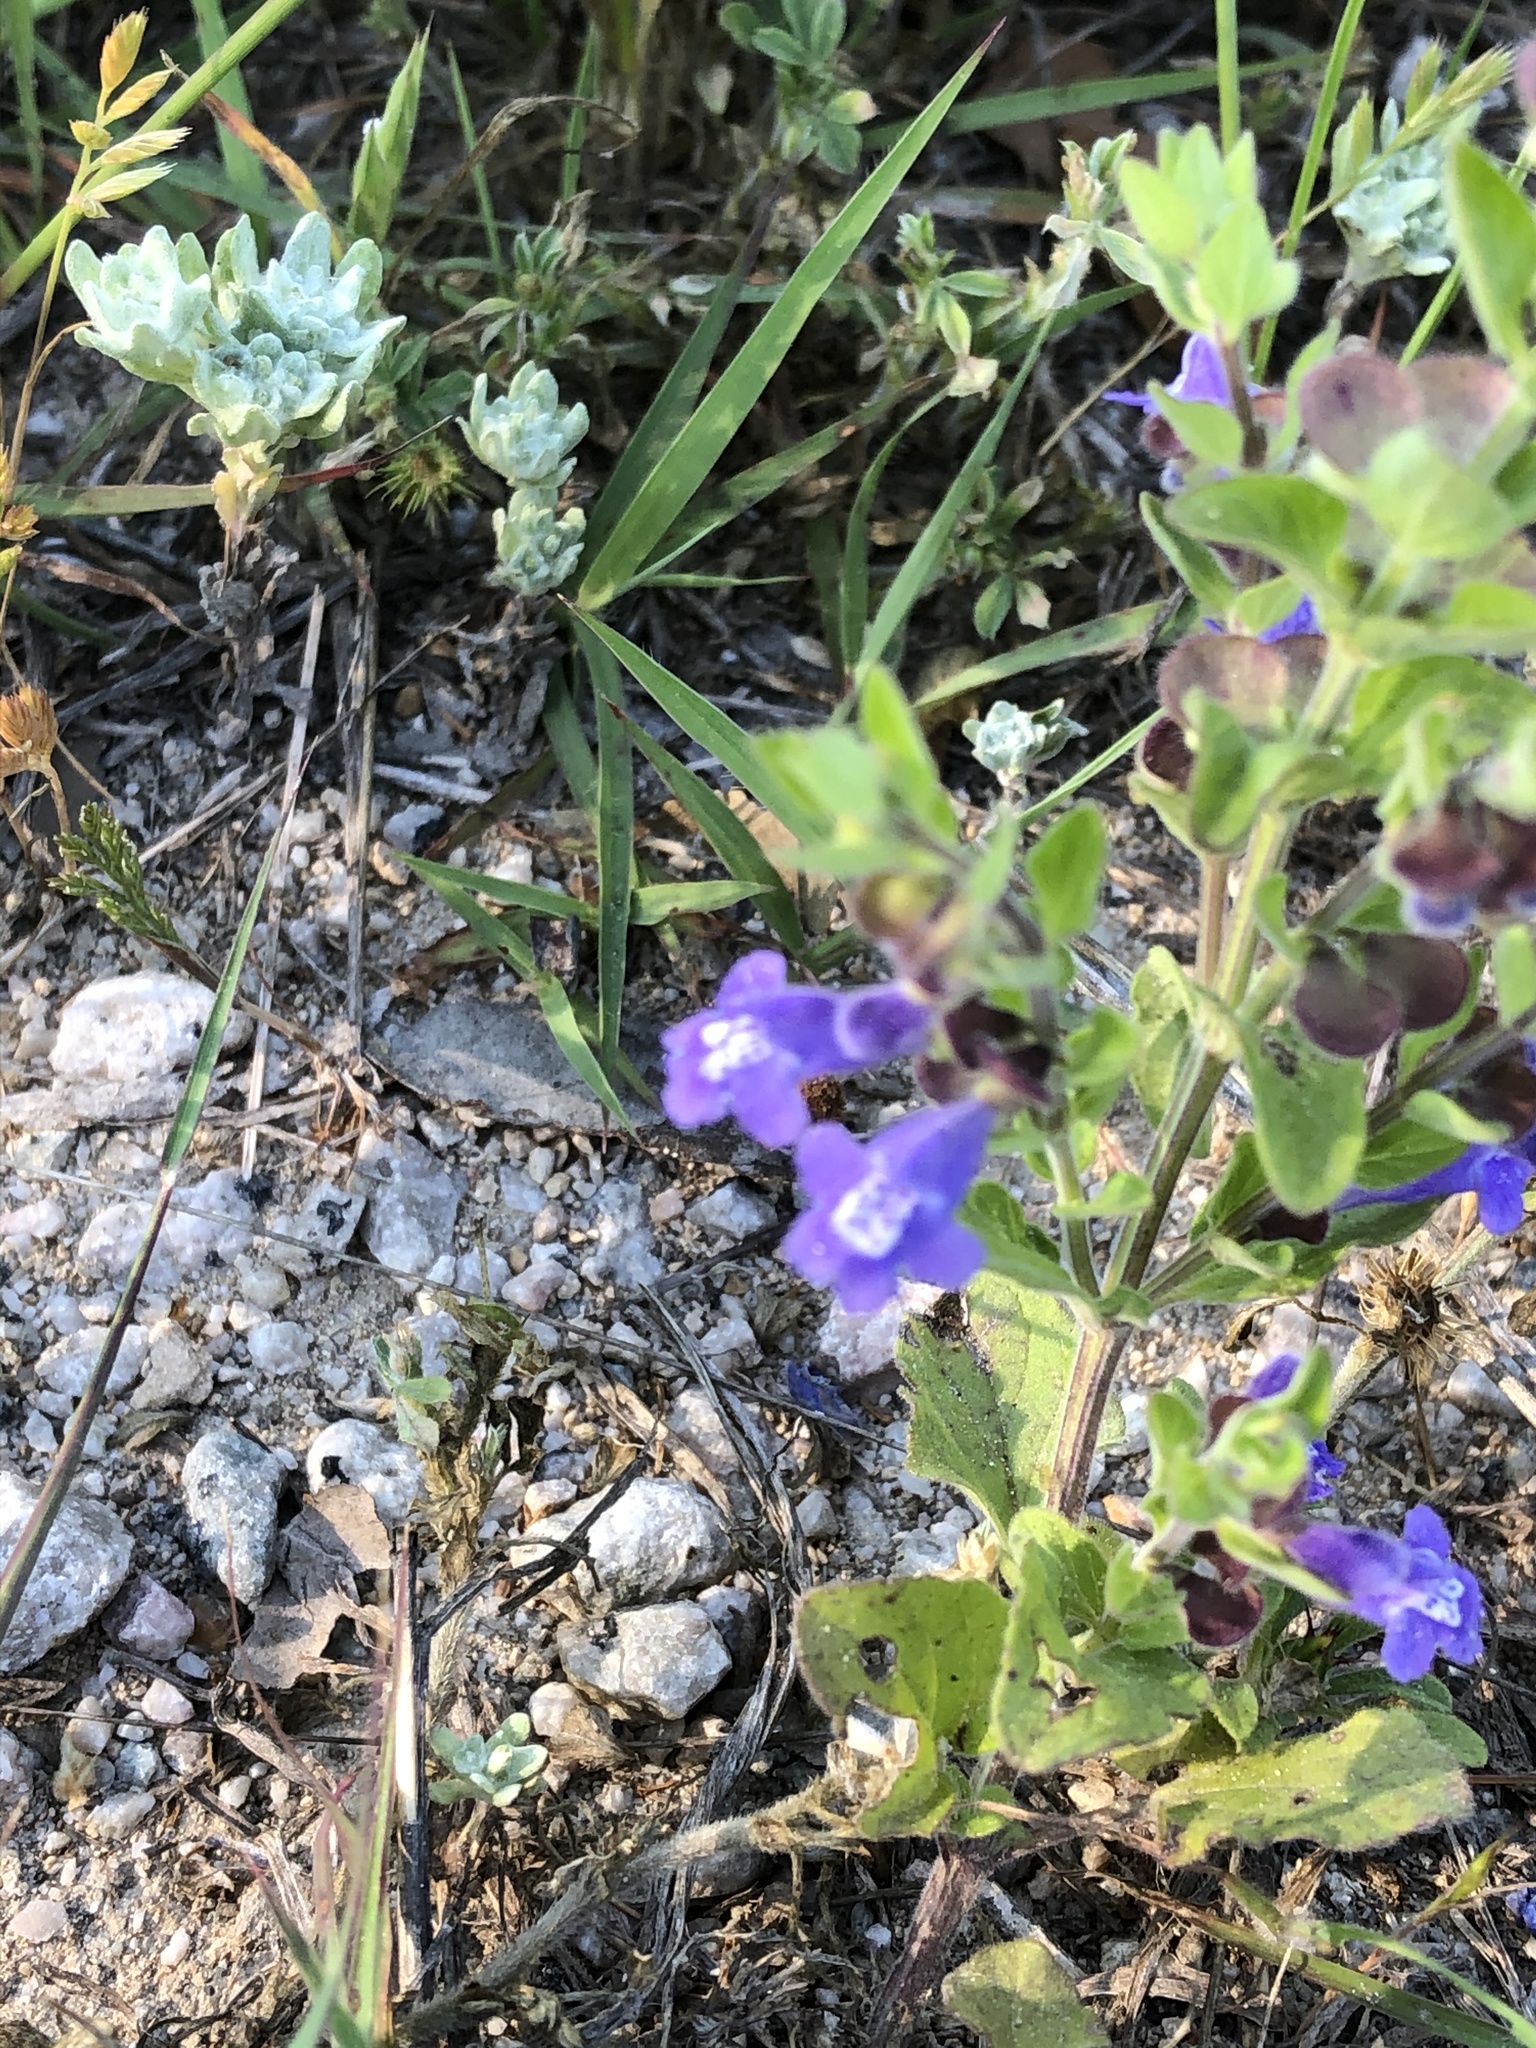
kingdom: Plantae
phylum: Tracheophyta
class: Magnoliopsida
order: Lamiales
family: Lamiaceae
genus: Scutellaria
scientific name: Scutellaria drummondii
